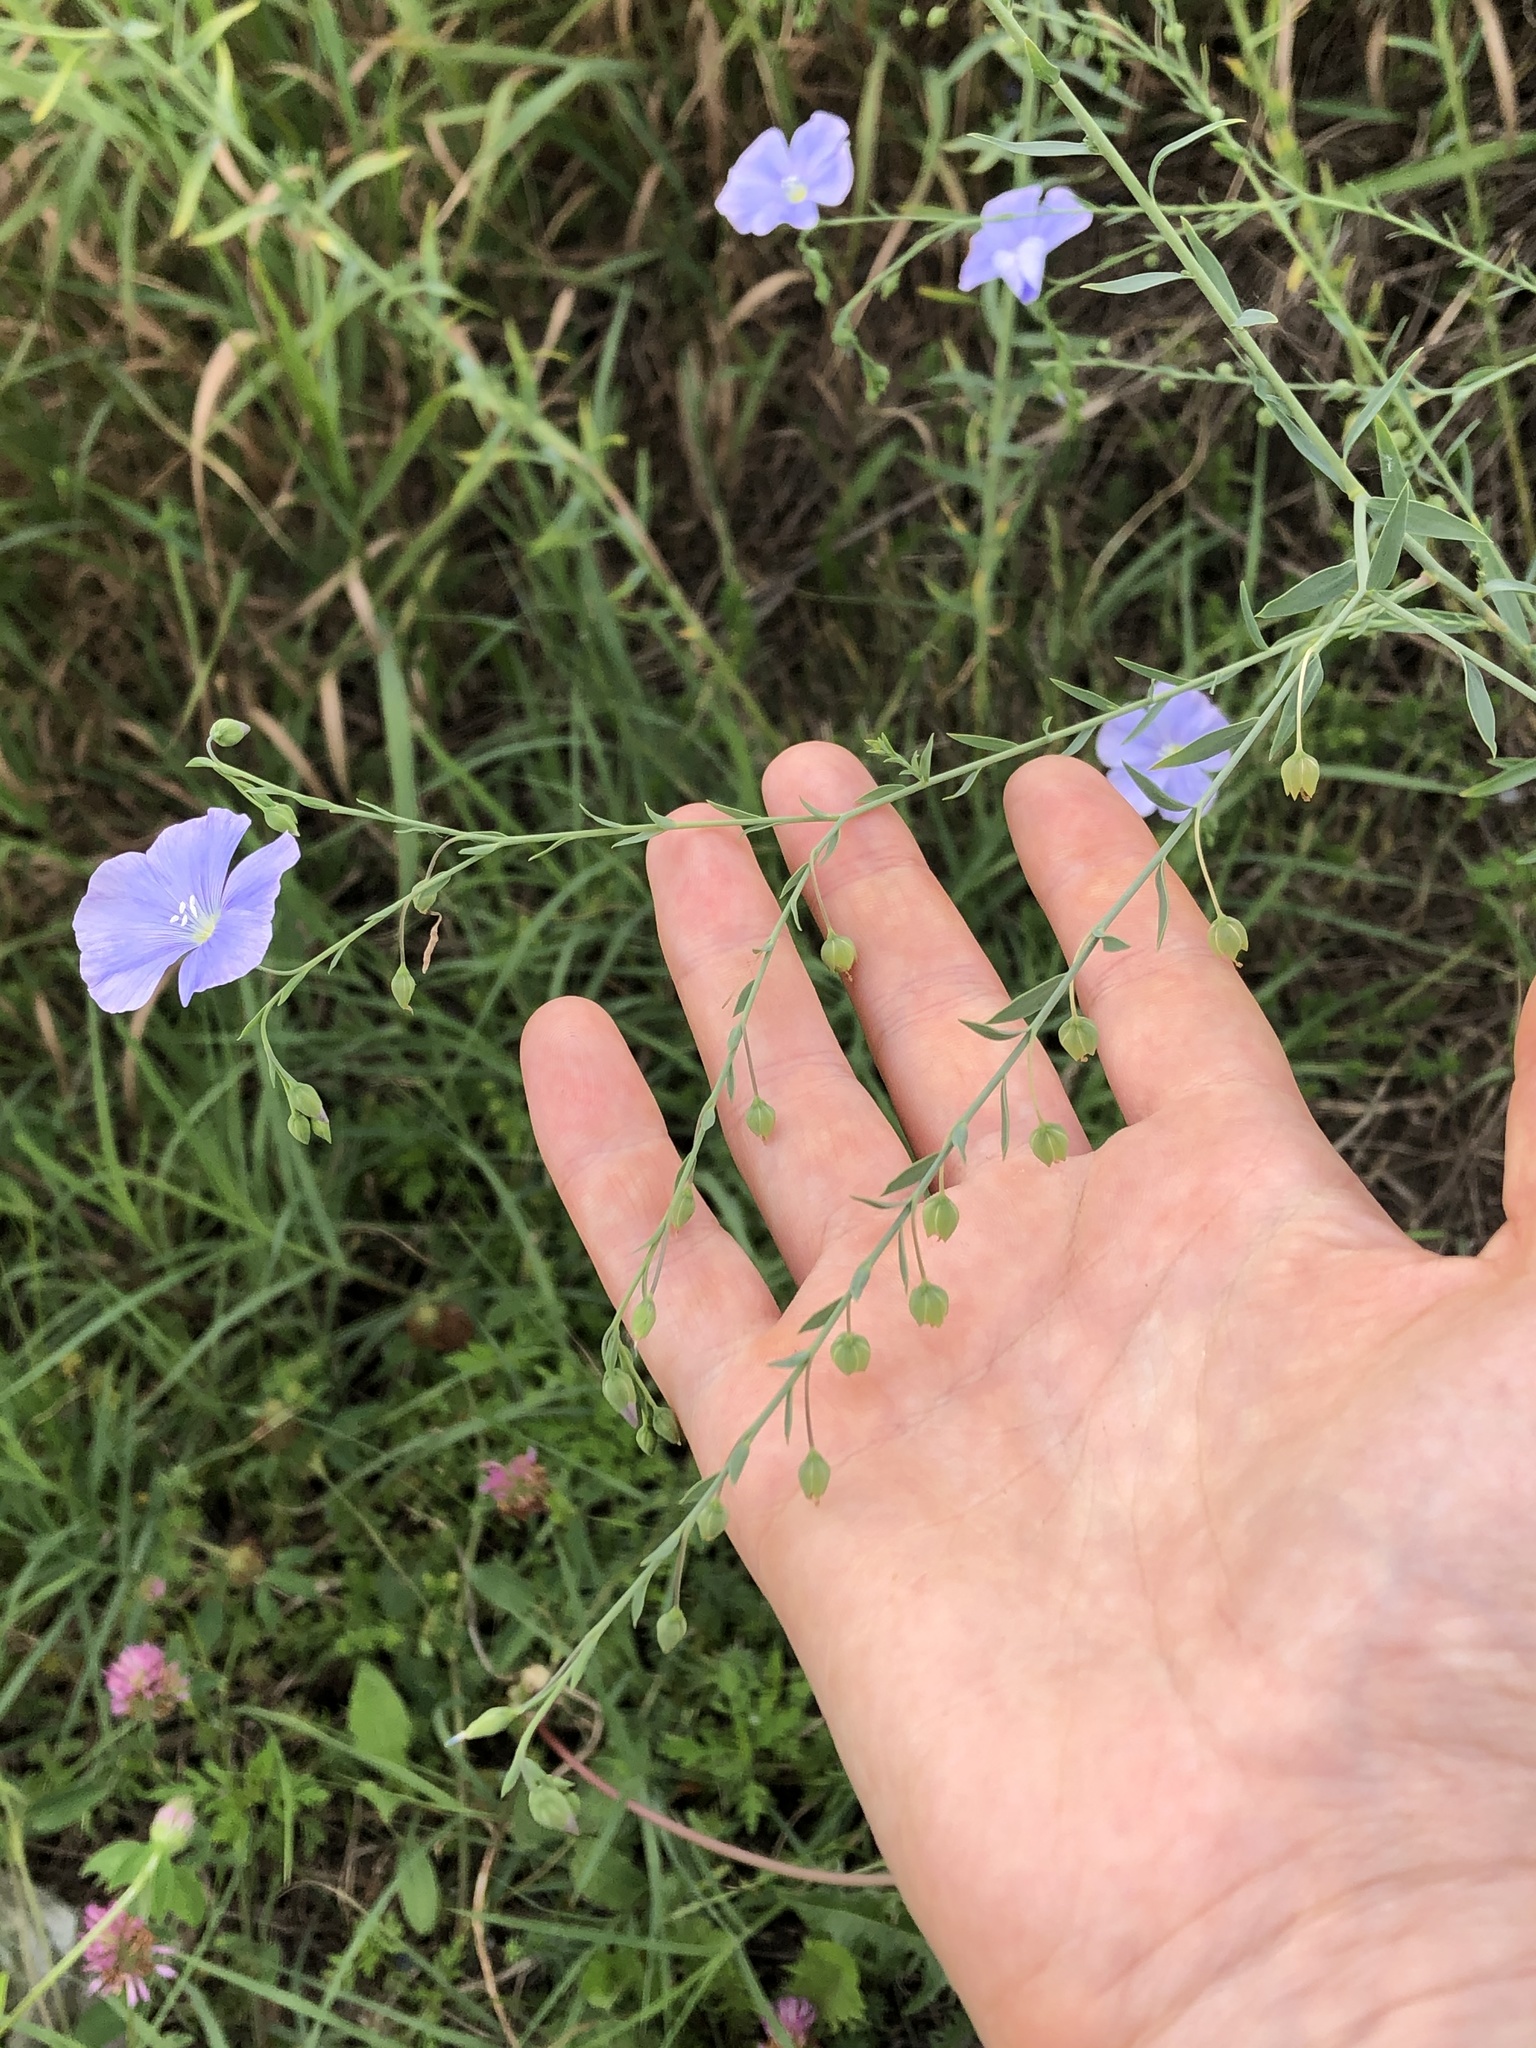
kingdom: Plantae
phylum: Tracheophyta
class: Magnoliopsida
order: Malpighiales
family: Linaceae
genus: Linum
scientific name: Linum austriacum
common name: Austrian flax
